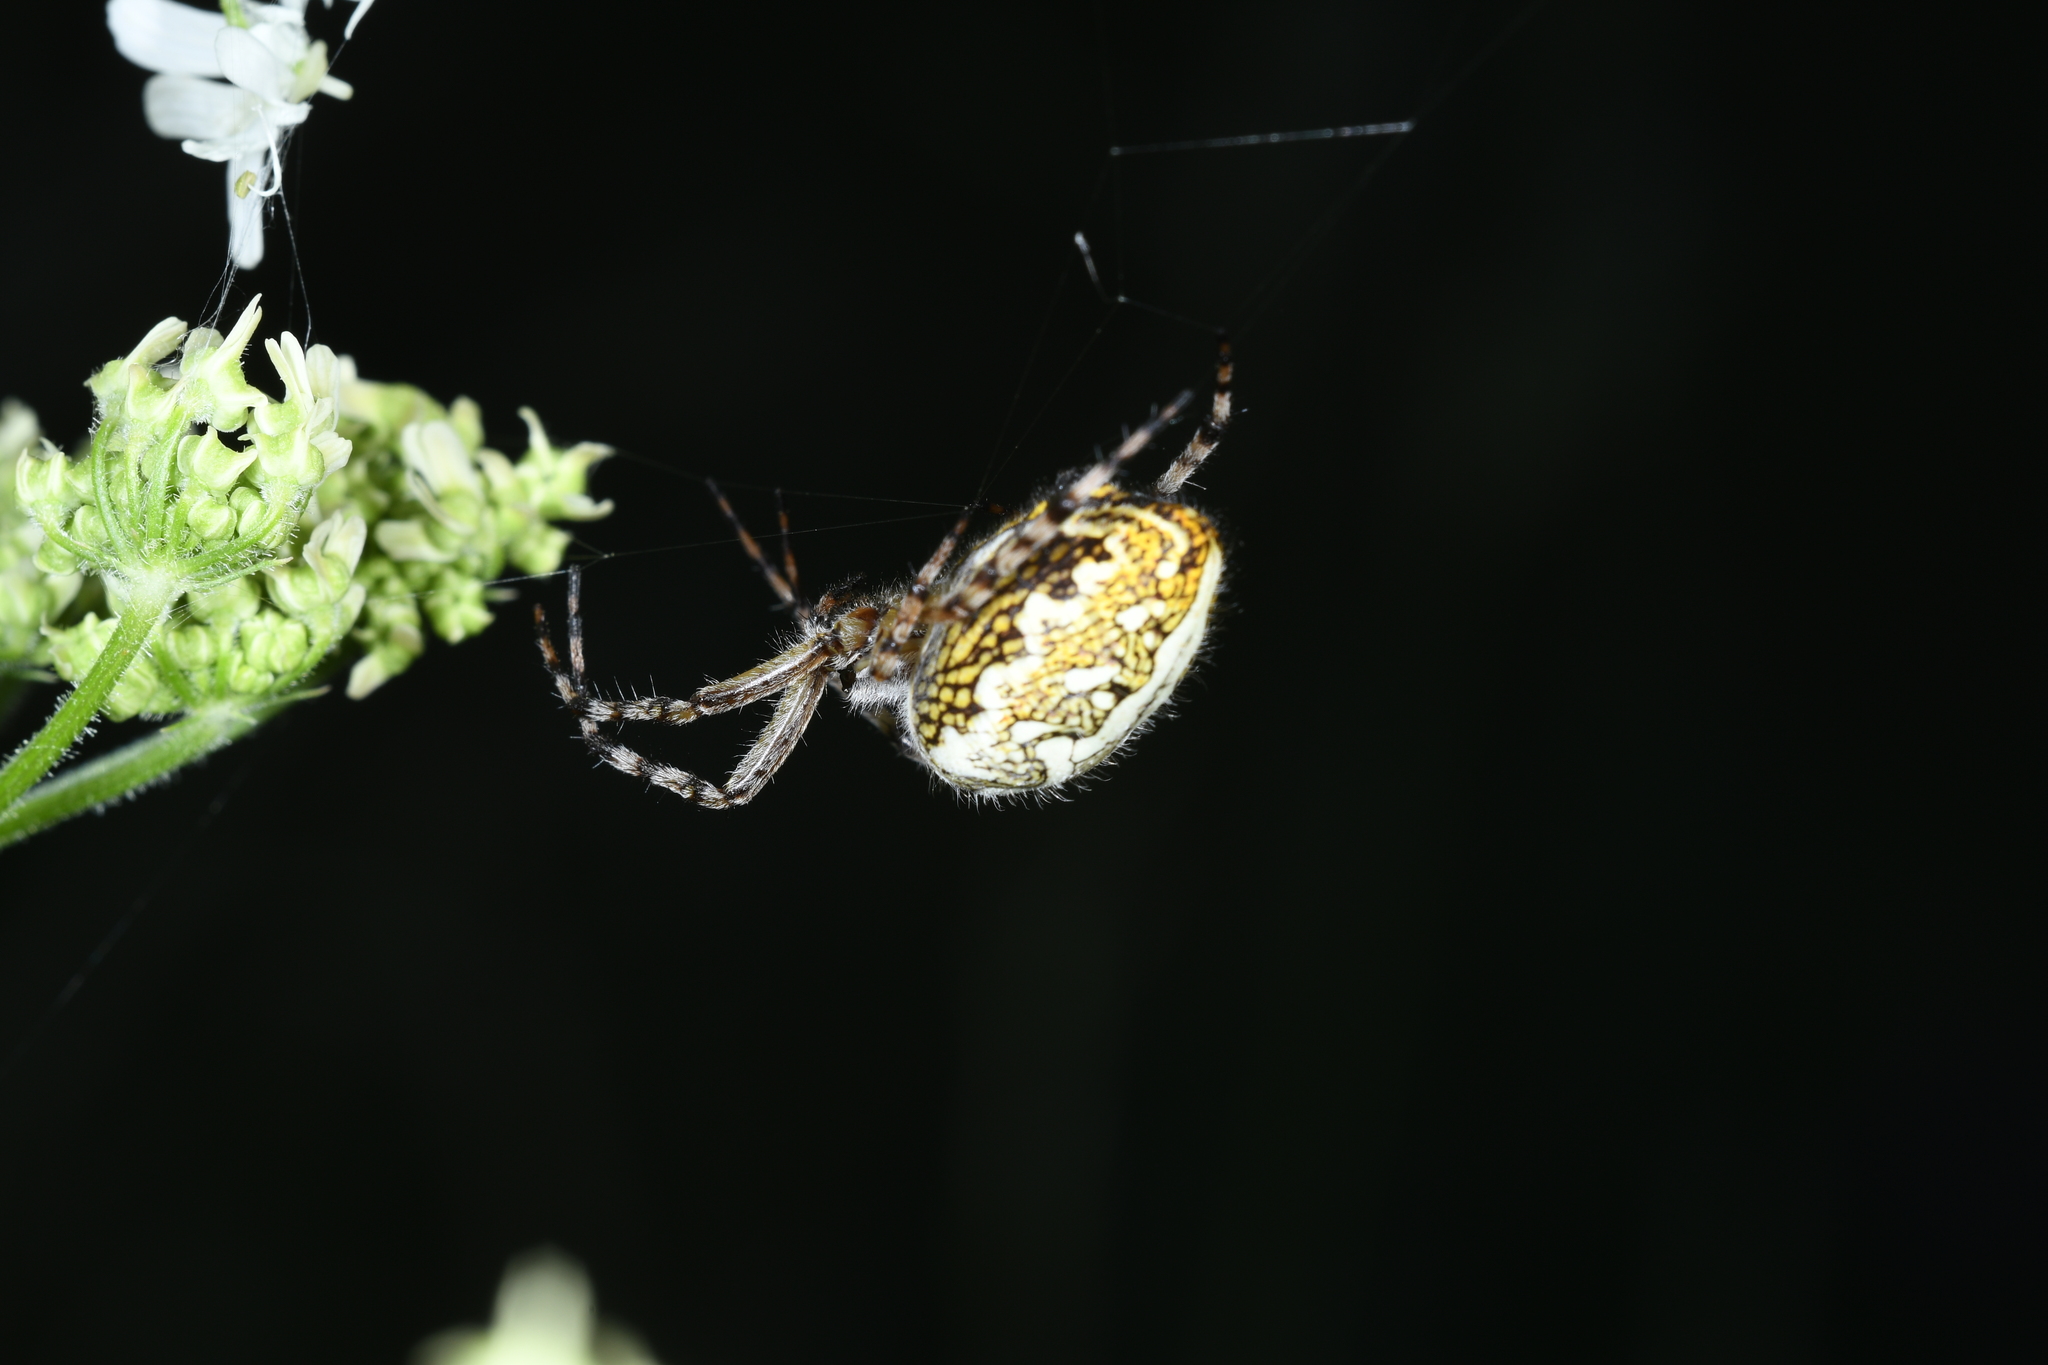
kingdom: Animalia
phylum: Arthropoda
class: Arachnida
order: Araneae
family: Araneidae
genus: Aculepeira
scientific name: Aculepeira ceropegia
